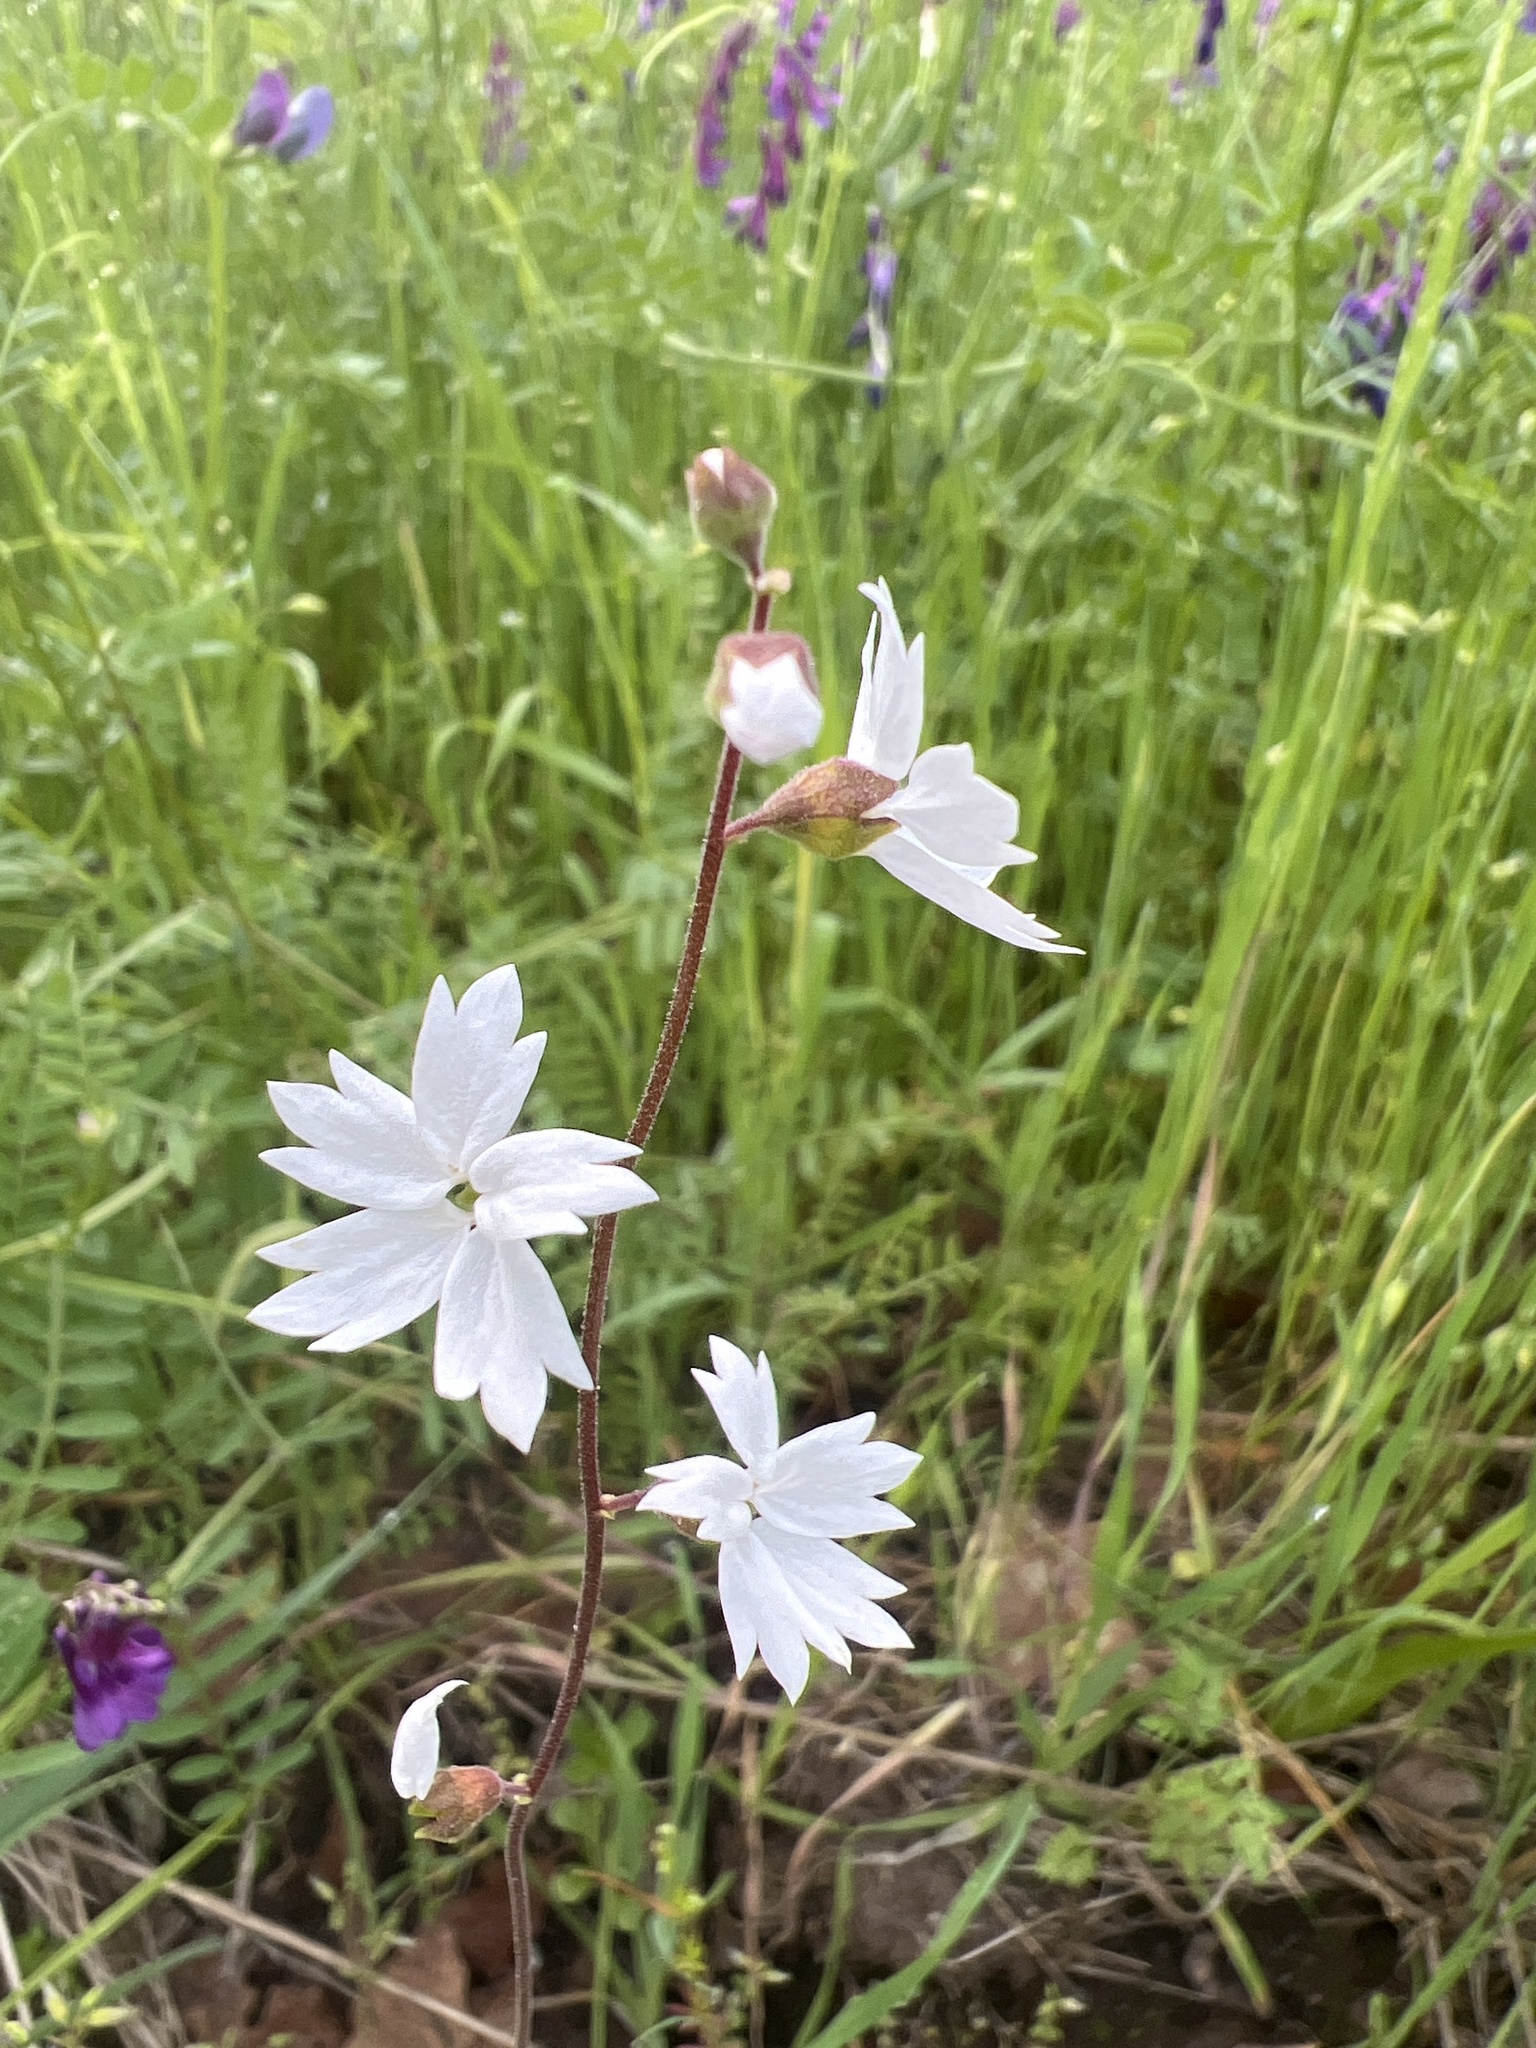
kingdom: Plantae
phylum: Tracheophyta
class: Magnoliopsida
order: Saxifragales
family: Saxifragaceae
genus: Lithophragma
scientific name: Lithophragma affine
